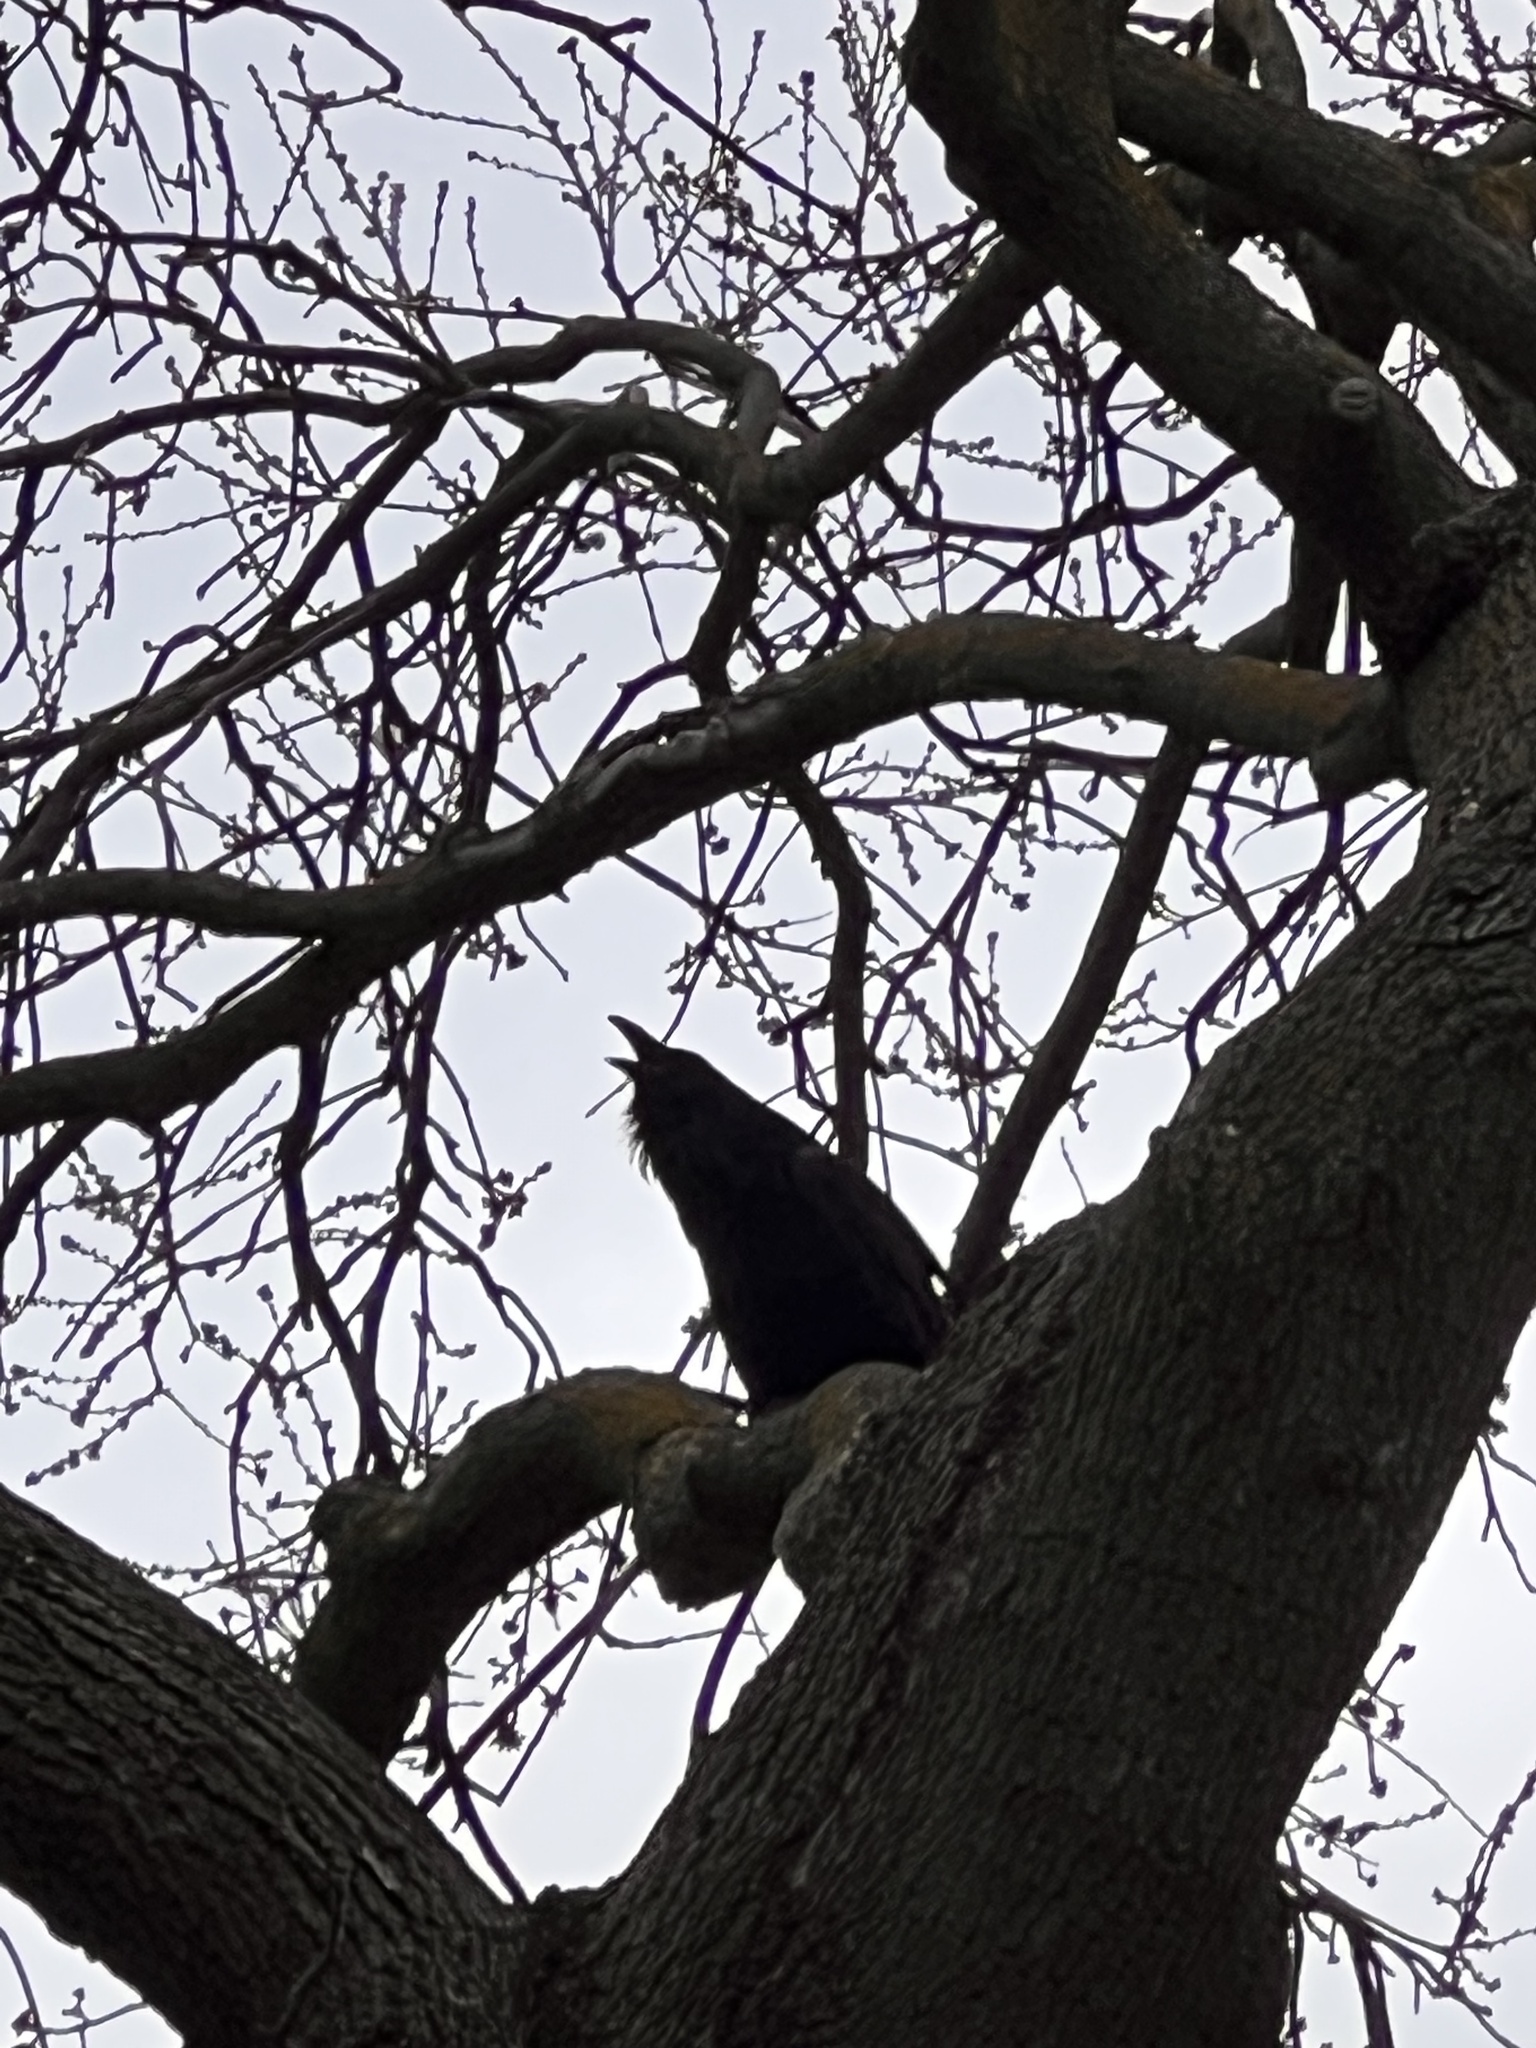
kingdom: Animalia
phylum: Chordata
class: Aves
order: Passeriformes
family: Corvidae
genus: Corvus
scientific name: Corvus corax
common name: Common raven
